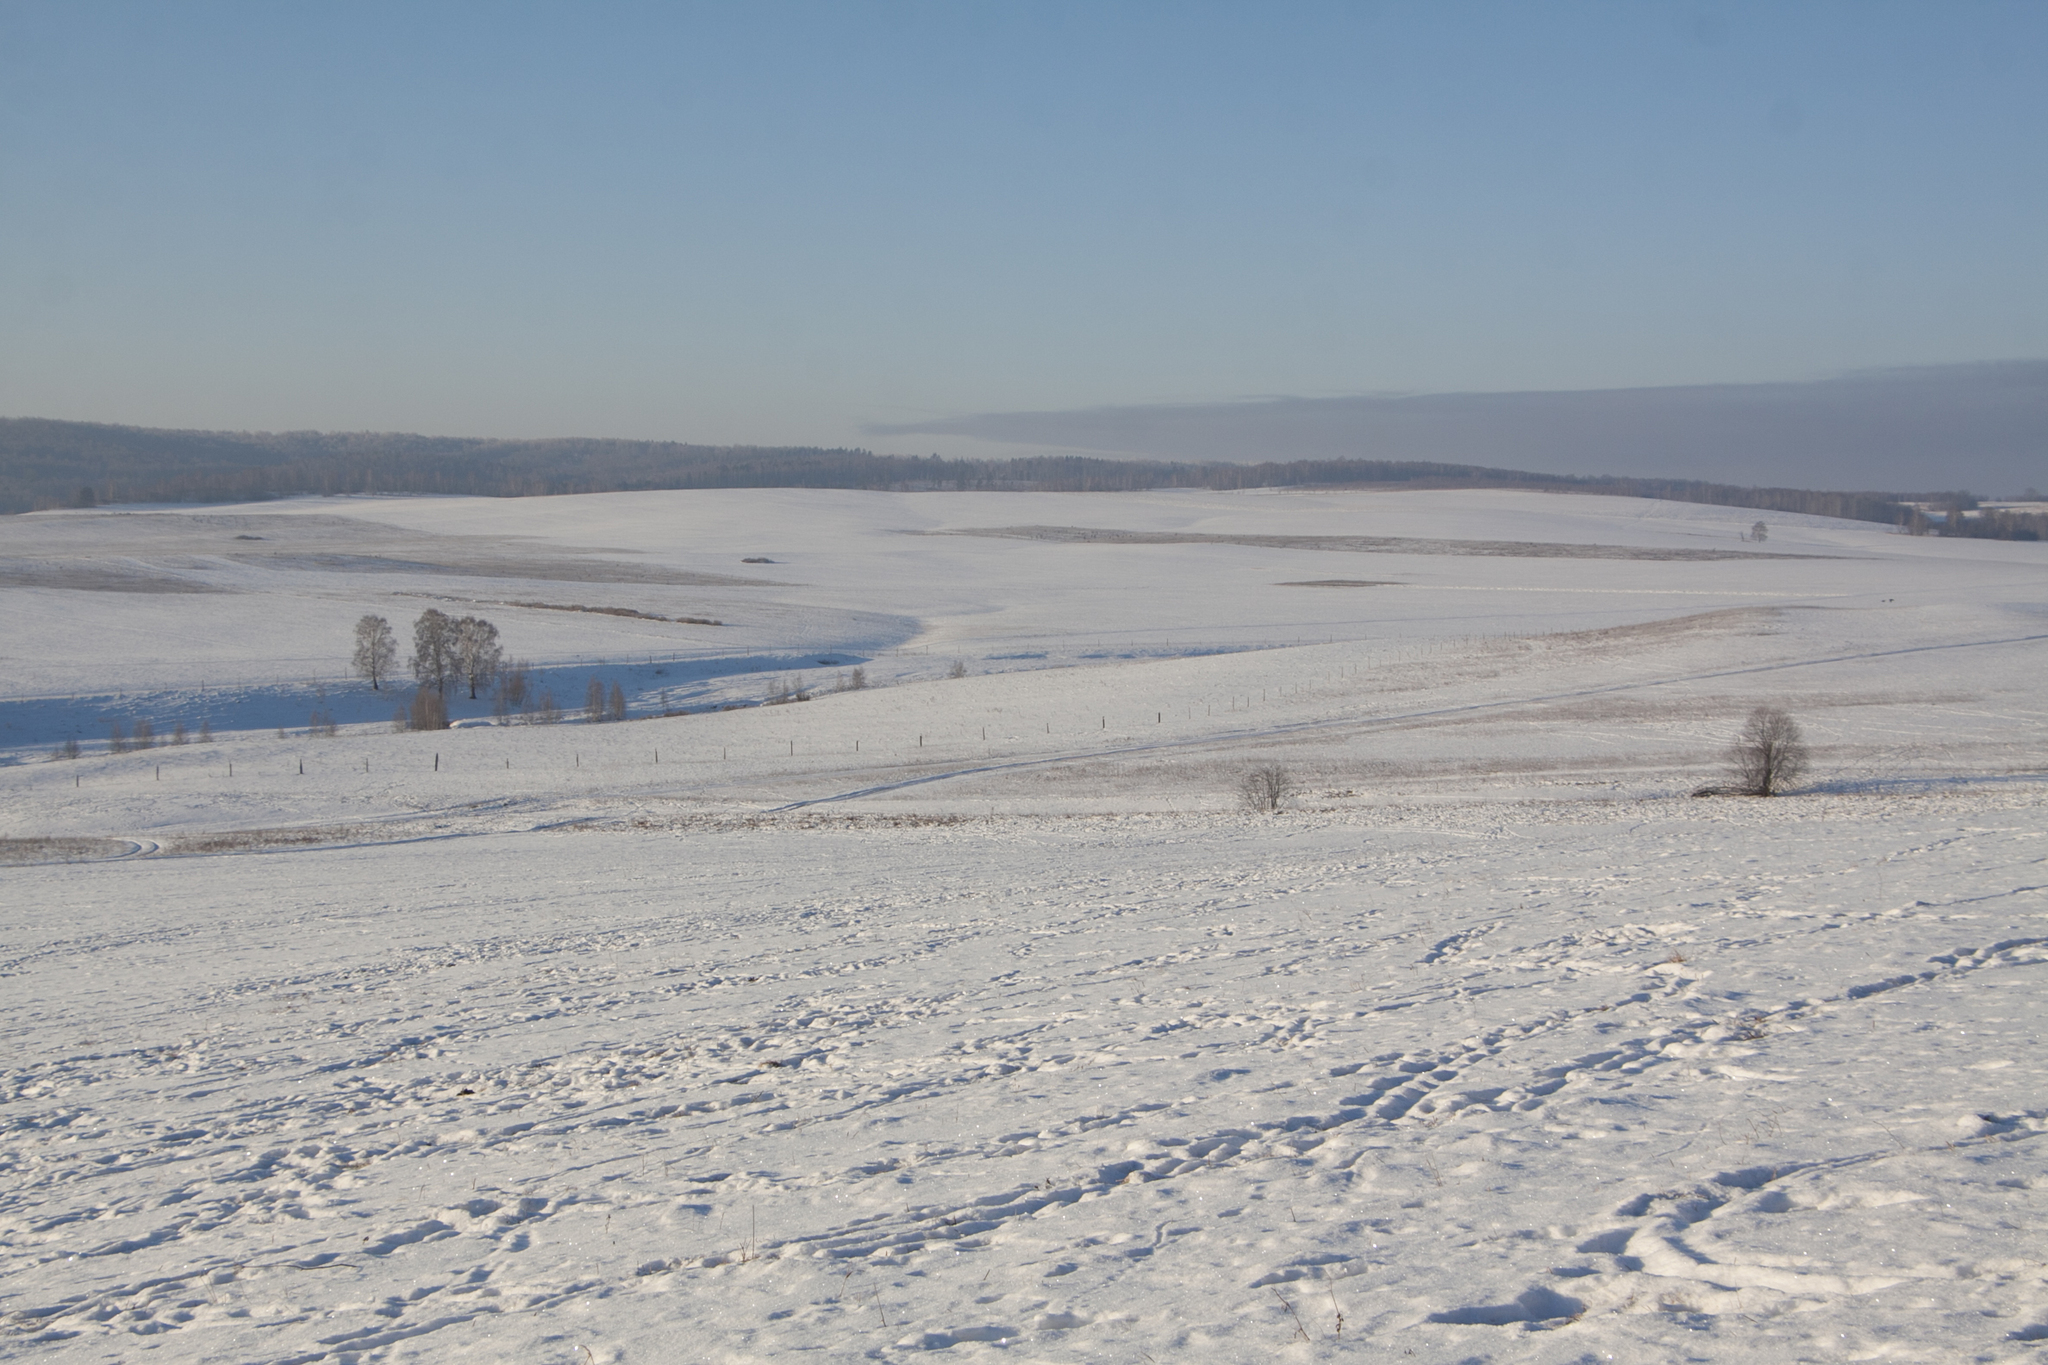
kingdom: Plantae
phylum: Tracheophyta
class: Magnoliopsida
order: Fagales
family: Betulaceae
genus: Betula
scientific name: Betula pendula
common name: Silver birch
